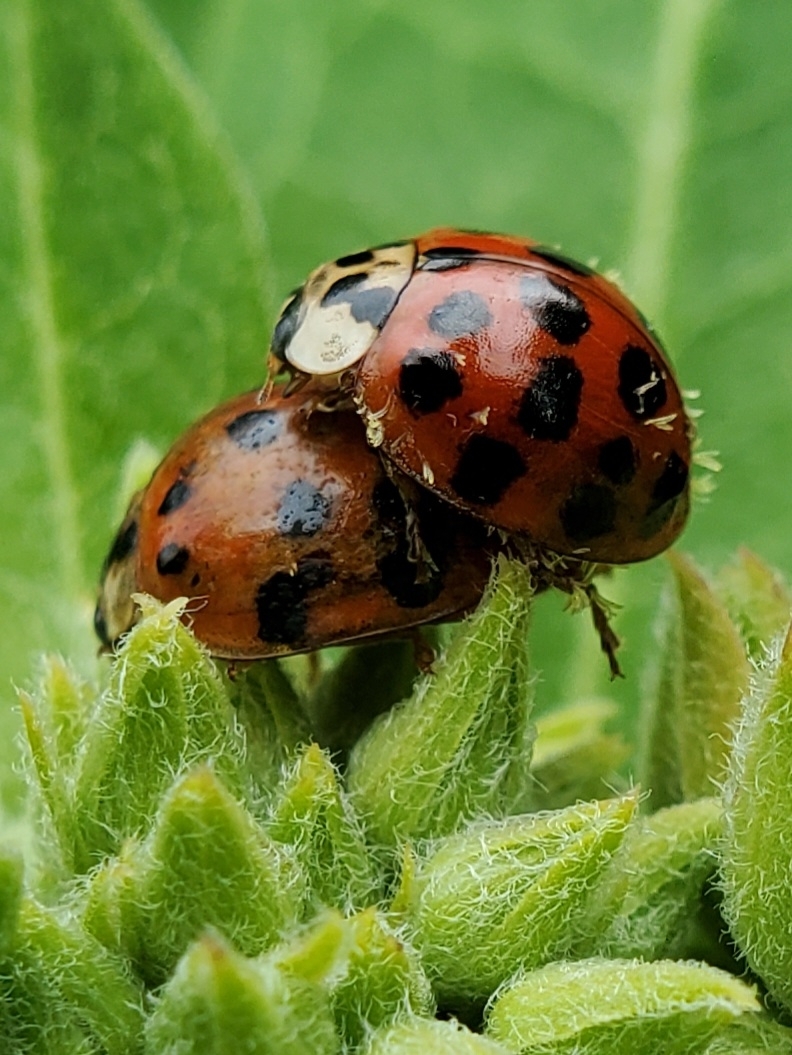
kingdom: Animalia
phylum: Arthropoda
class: Insecta
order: Coleoptera
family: Coccinellidae
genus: Harmonia
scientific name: Harmonia axyridis
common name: Harlequin ladybird
